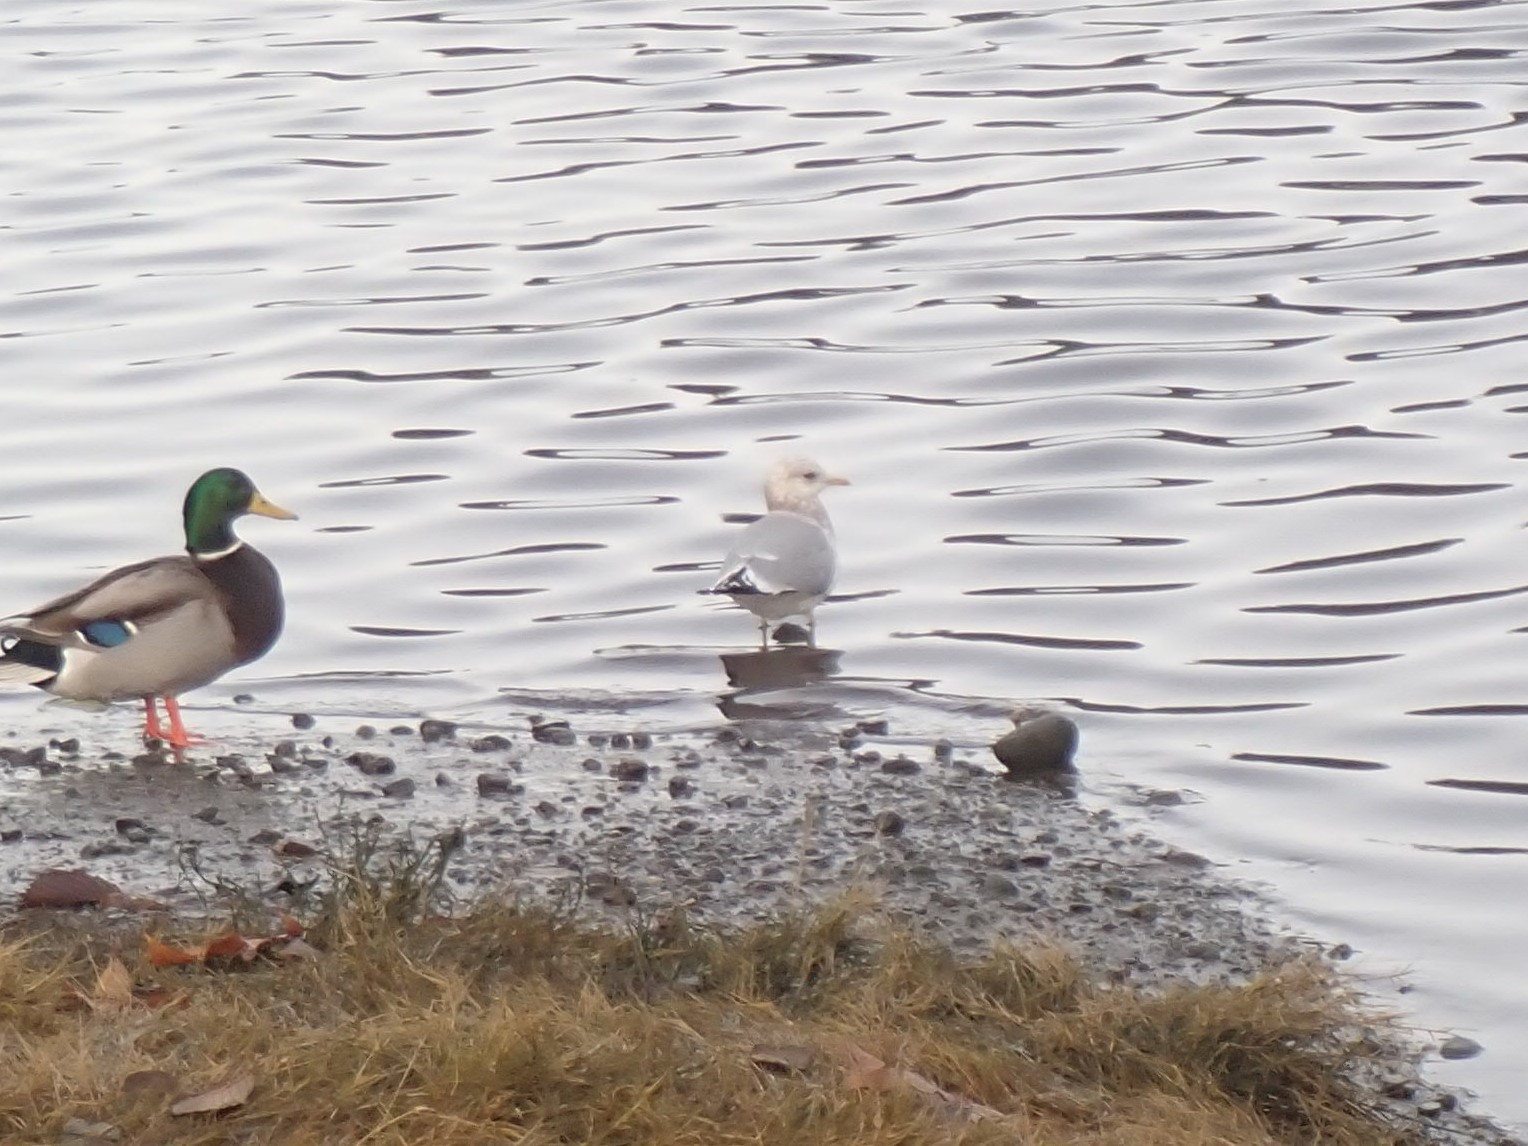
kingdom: Animalia
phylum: Chordata
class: Aves
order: Charadriiformes
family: Laridae
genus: Larus
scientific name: Larus brachyrhynchus
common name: Short-billed gull
